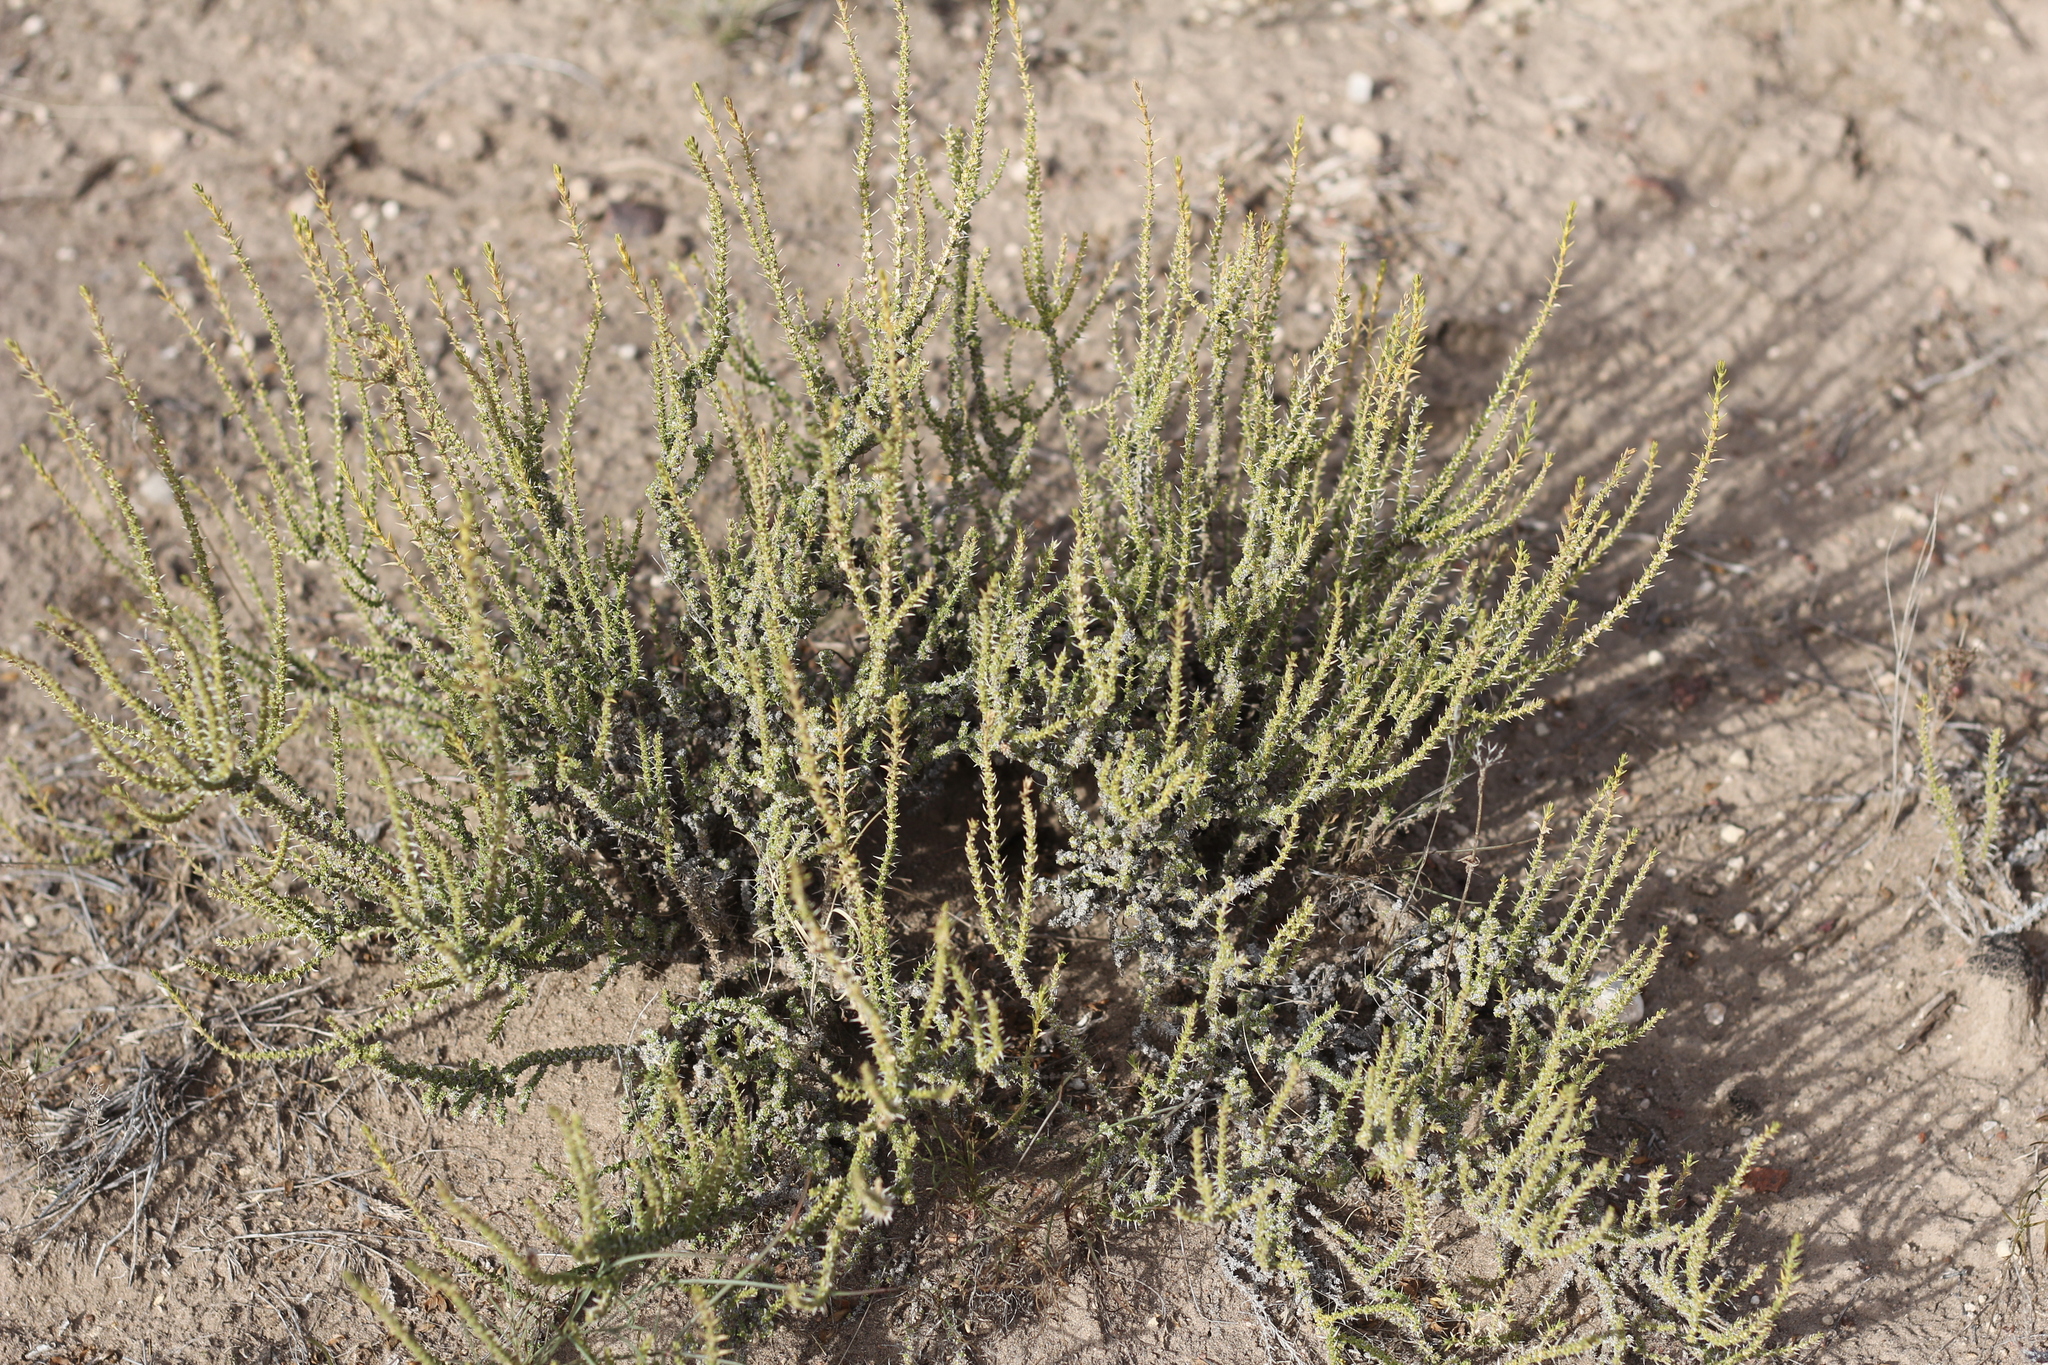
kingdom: Plantae
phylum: Tracheophyta
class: Magnoliopsida
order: Lamiales
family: Verbenaceae
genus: Junellia
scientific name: Junellia seriphioides
